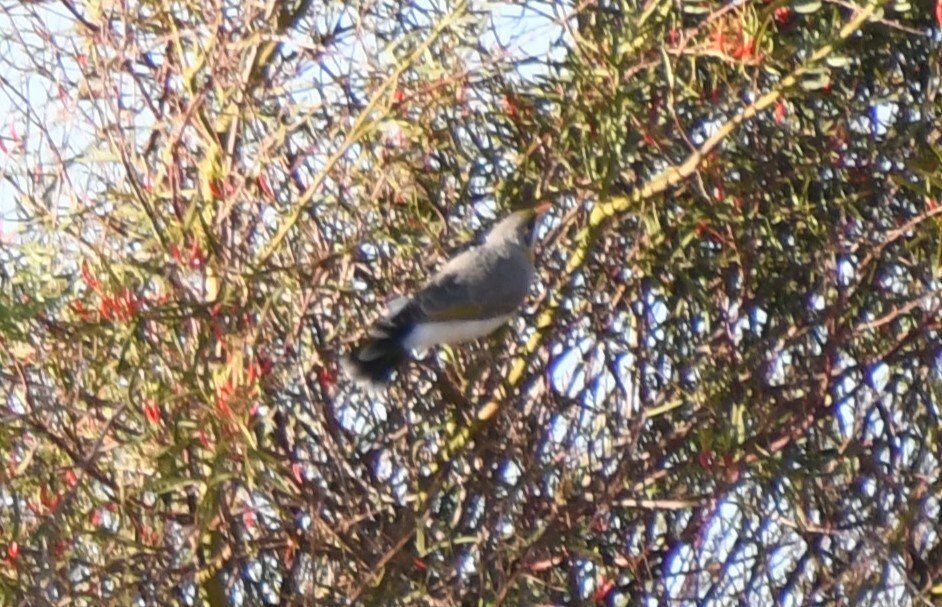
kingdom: Animalia
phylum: Chordata
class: Aves
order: Passeriformes
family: Meliphagidae
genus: Manorina
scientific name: Manorina flavigula
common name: Yellow-throated miner
